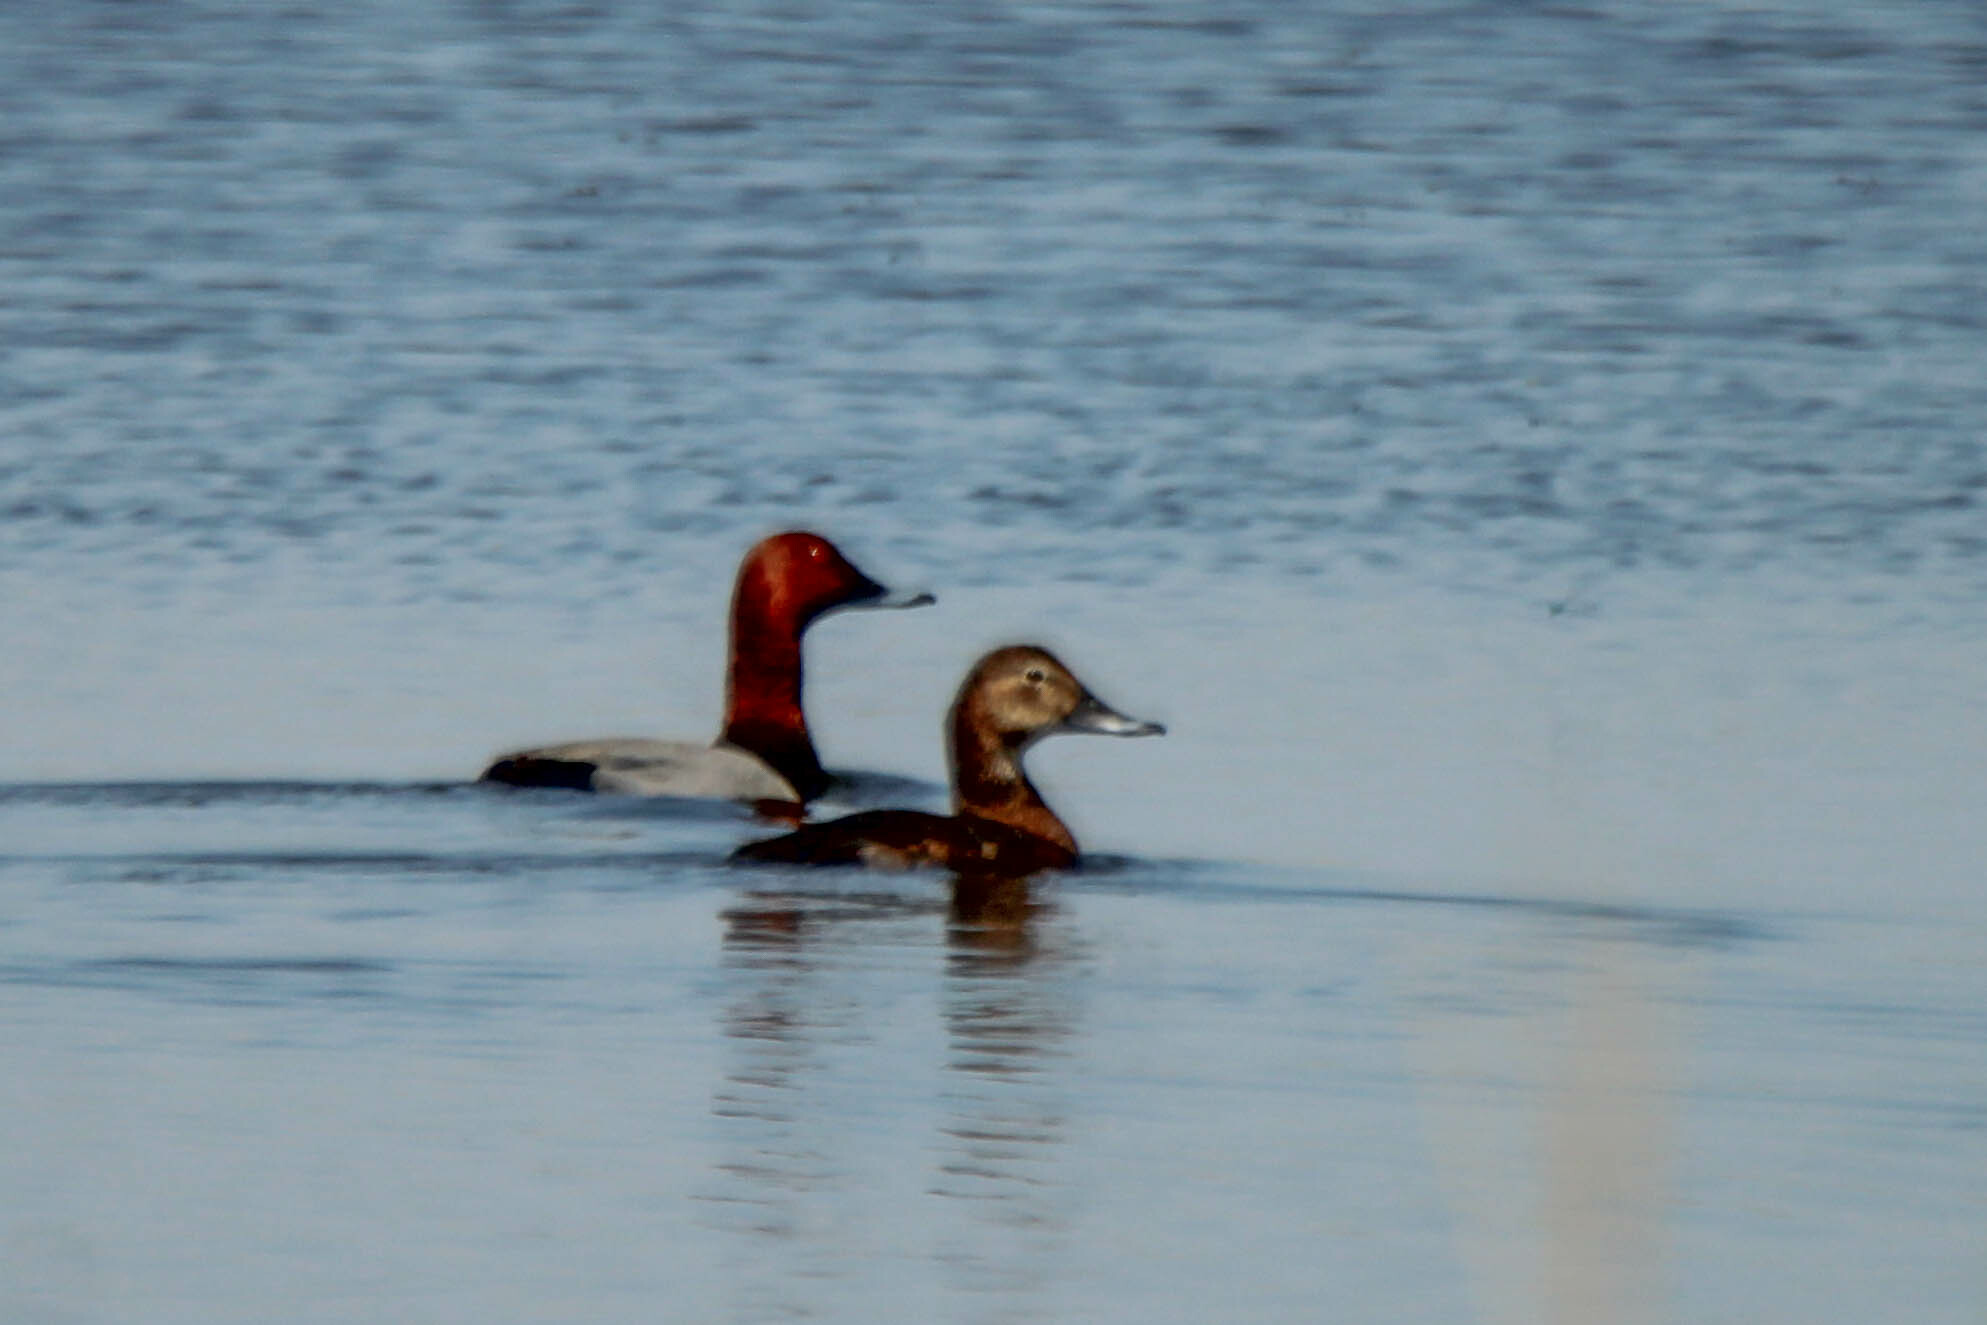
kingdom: Animalia
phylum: Chordata
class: Aves
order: Anseriformes
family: Anatidae
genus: Aythya
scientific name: Aythya ferina
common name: Common pochard
